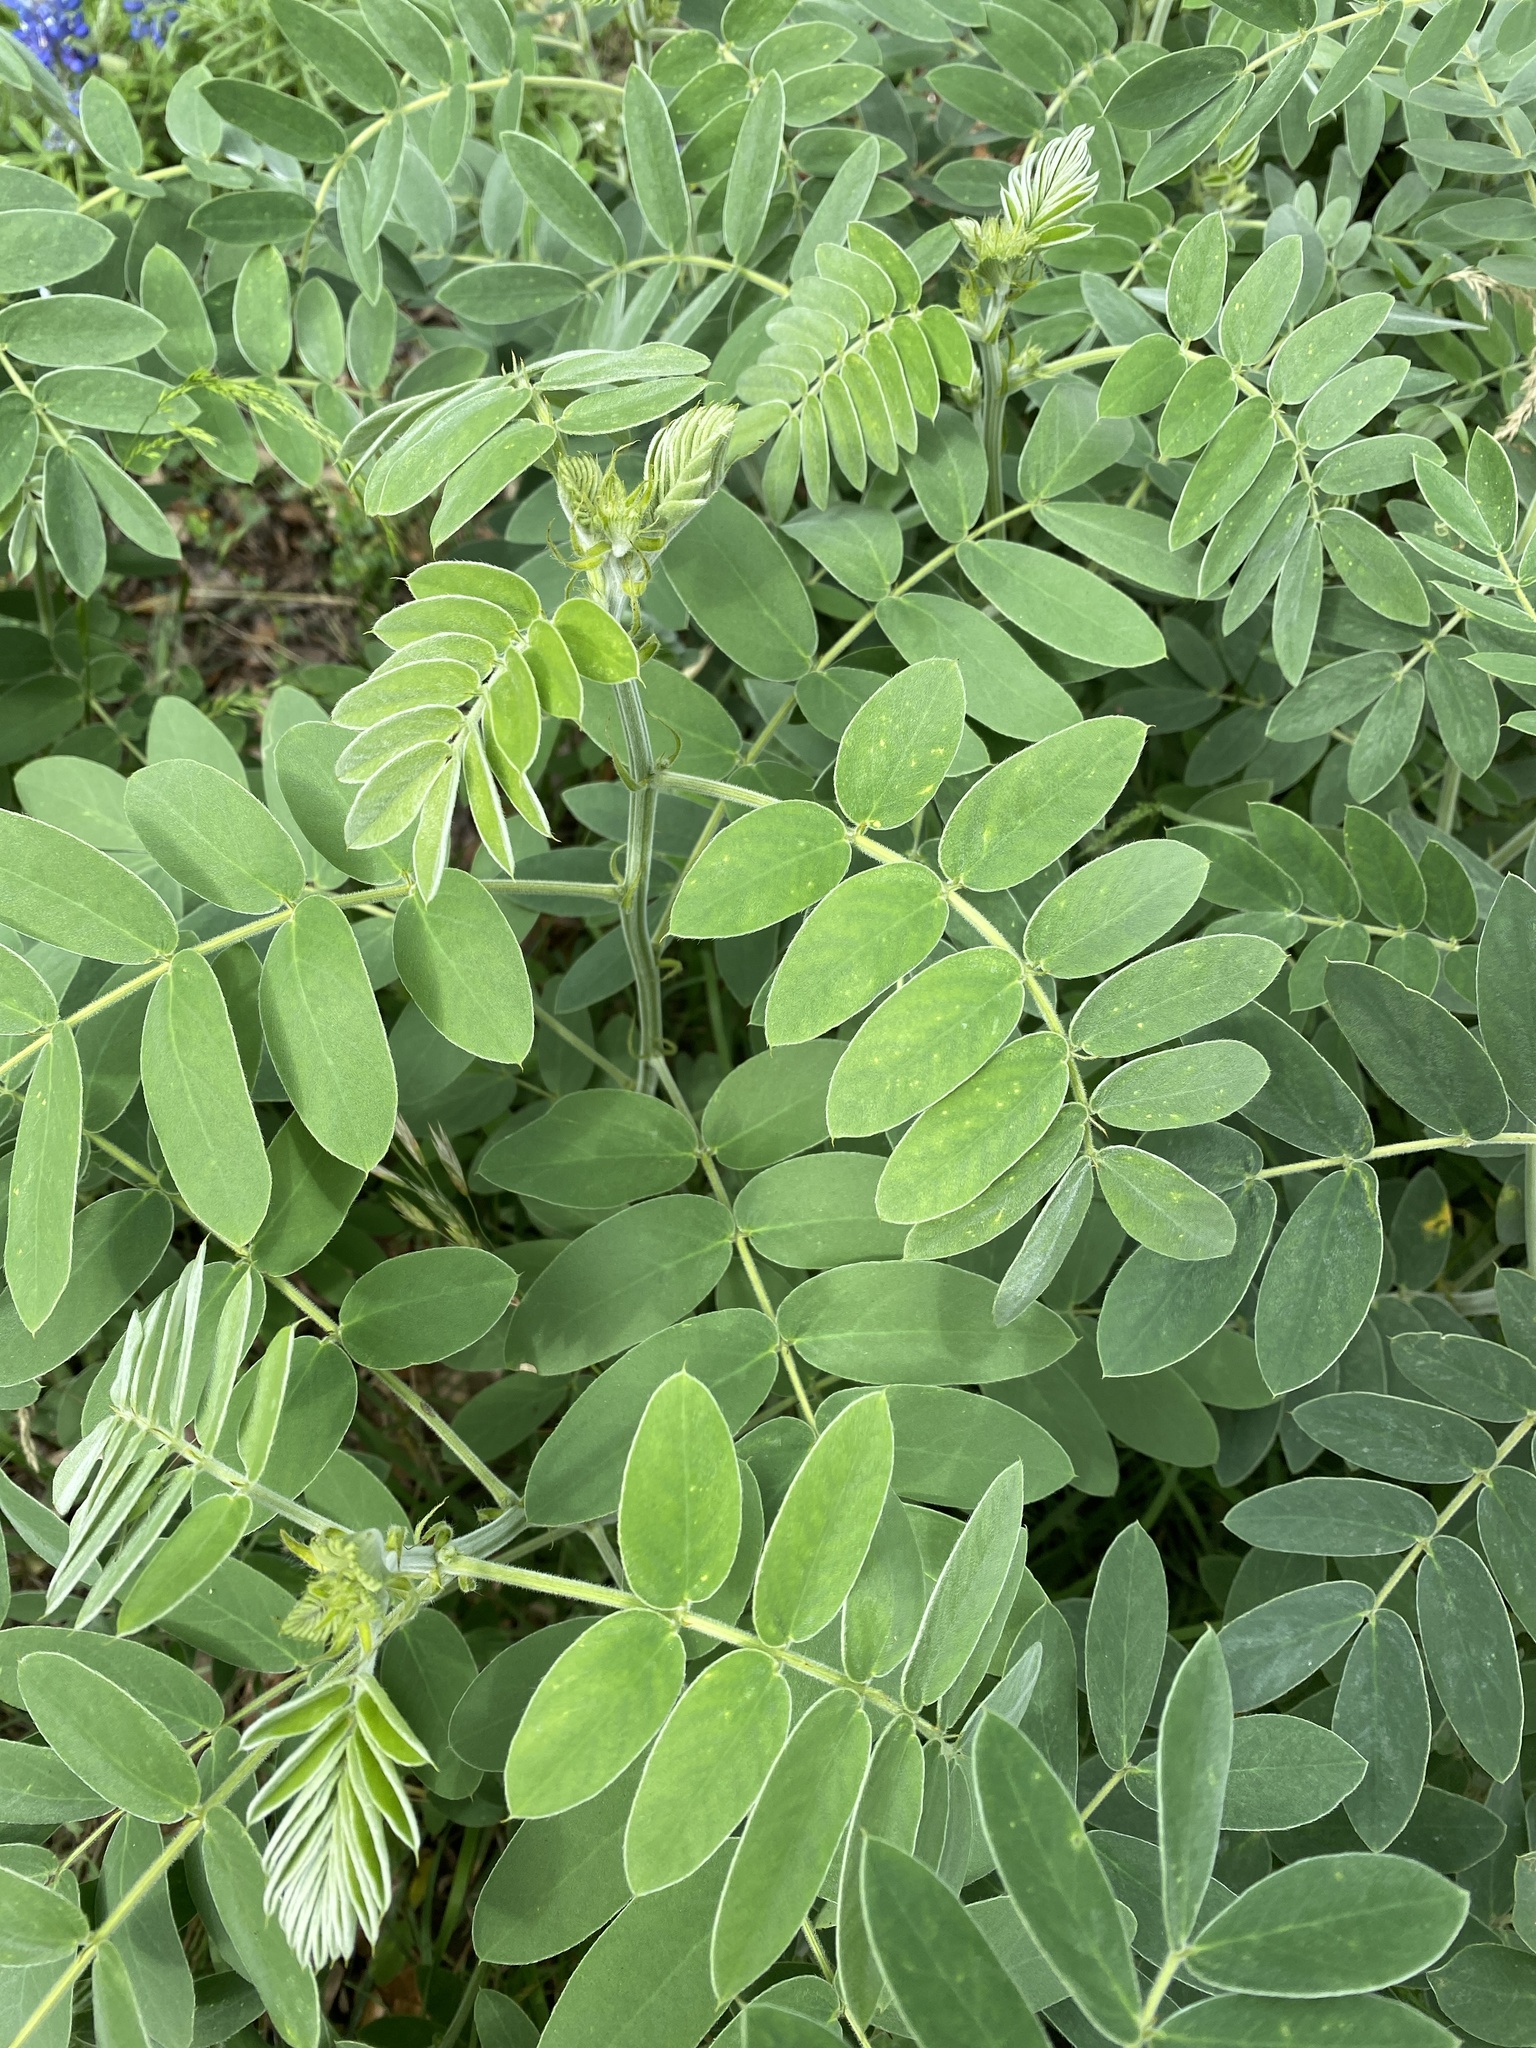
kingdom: Plantae
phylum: Tracheophyta
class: Magnoliopsida
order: Fabales
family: Fabaceae
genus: Senna
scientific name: Senna lindheimeriana
